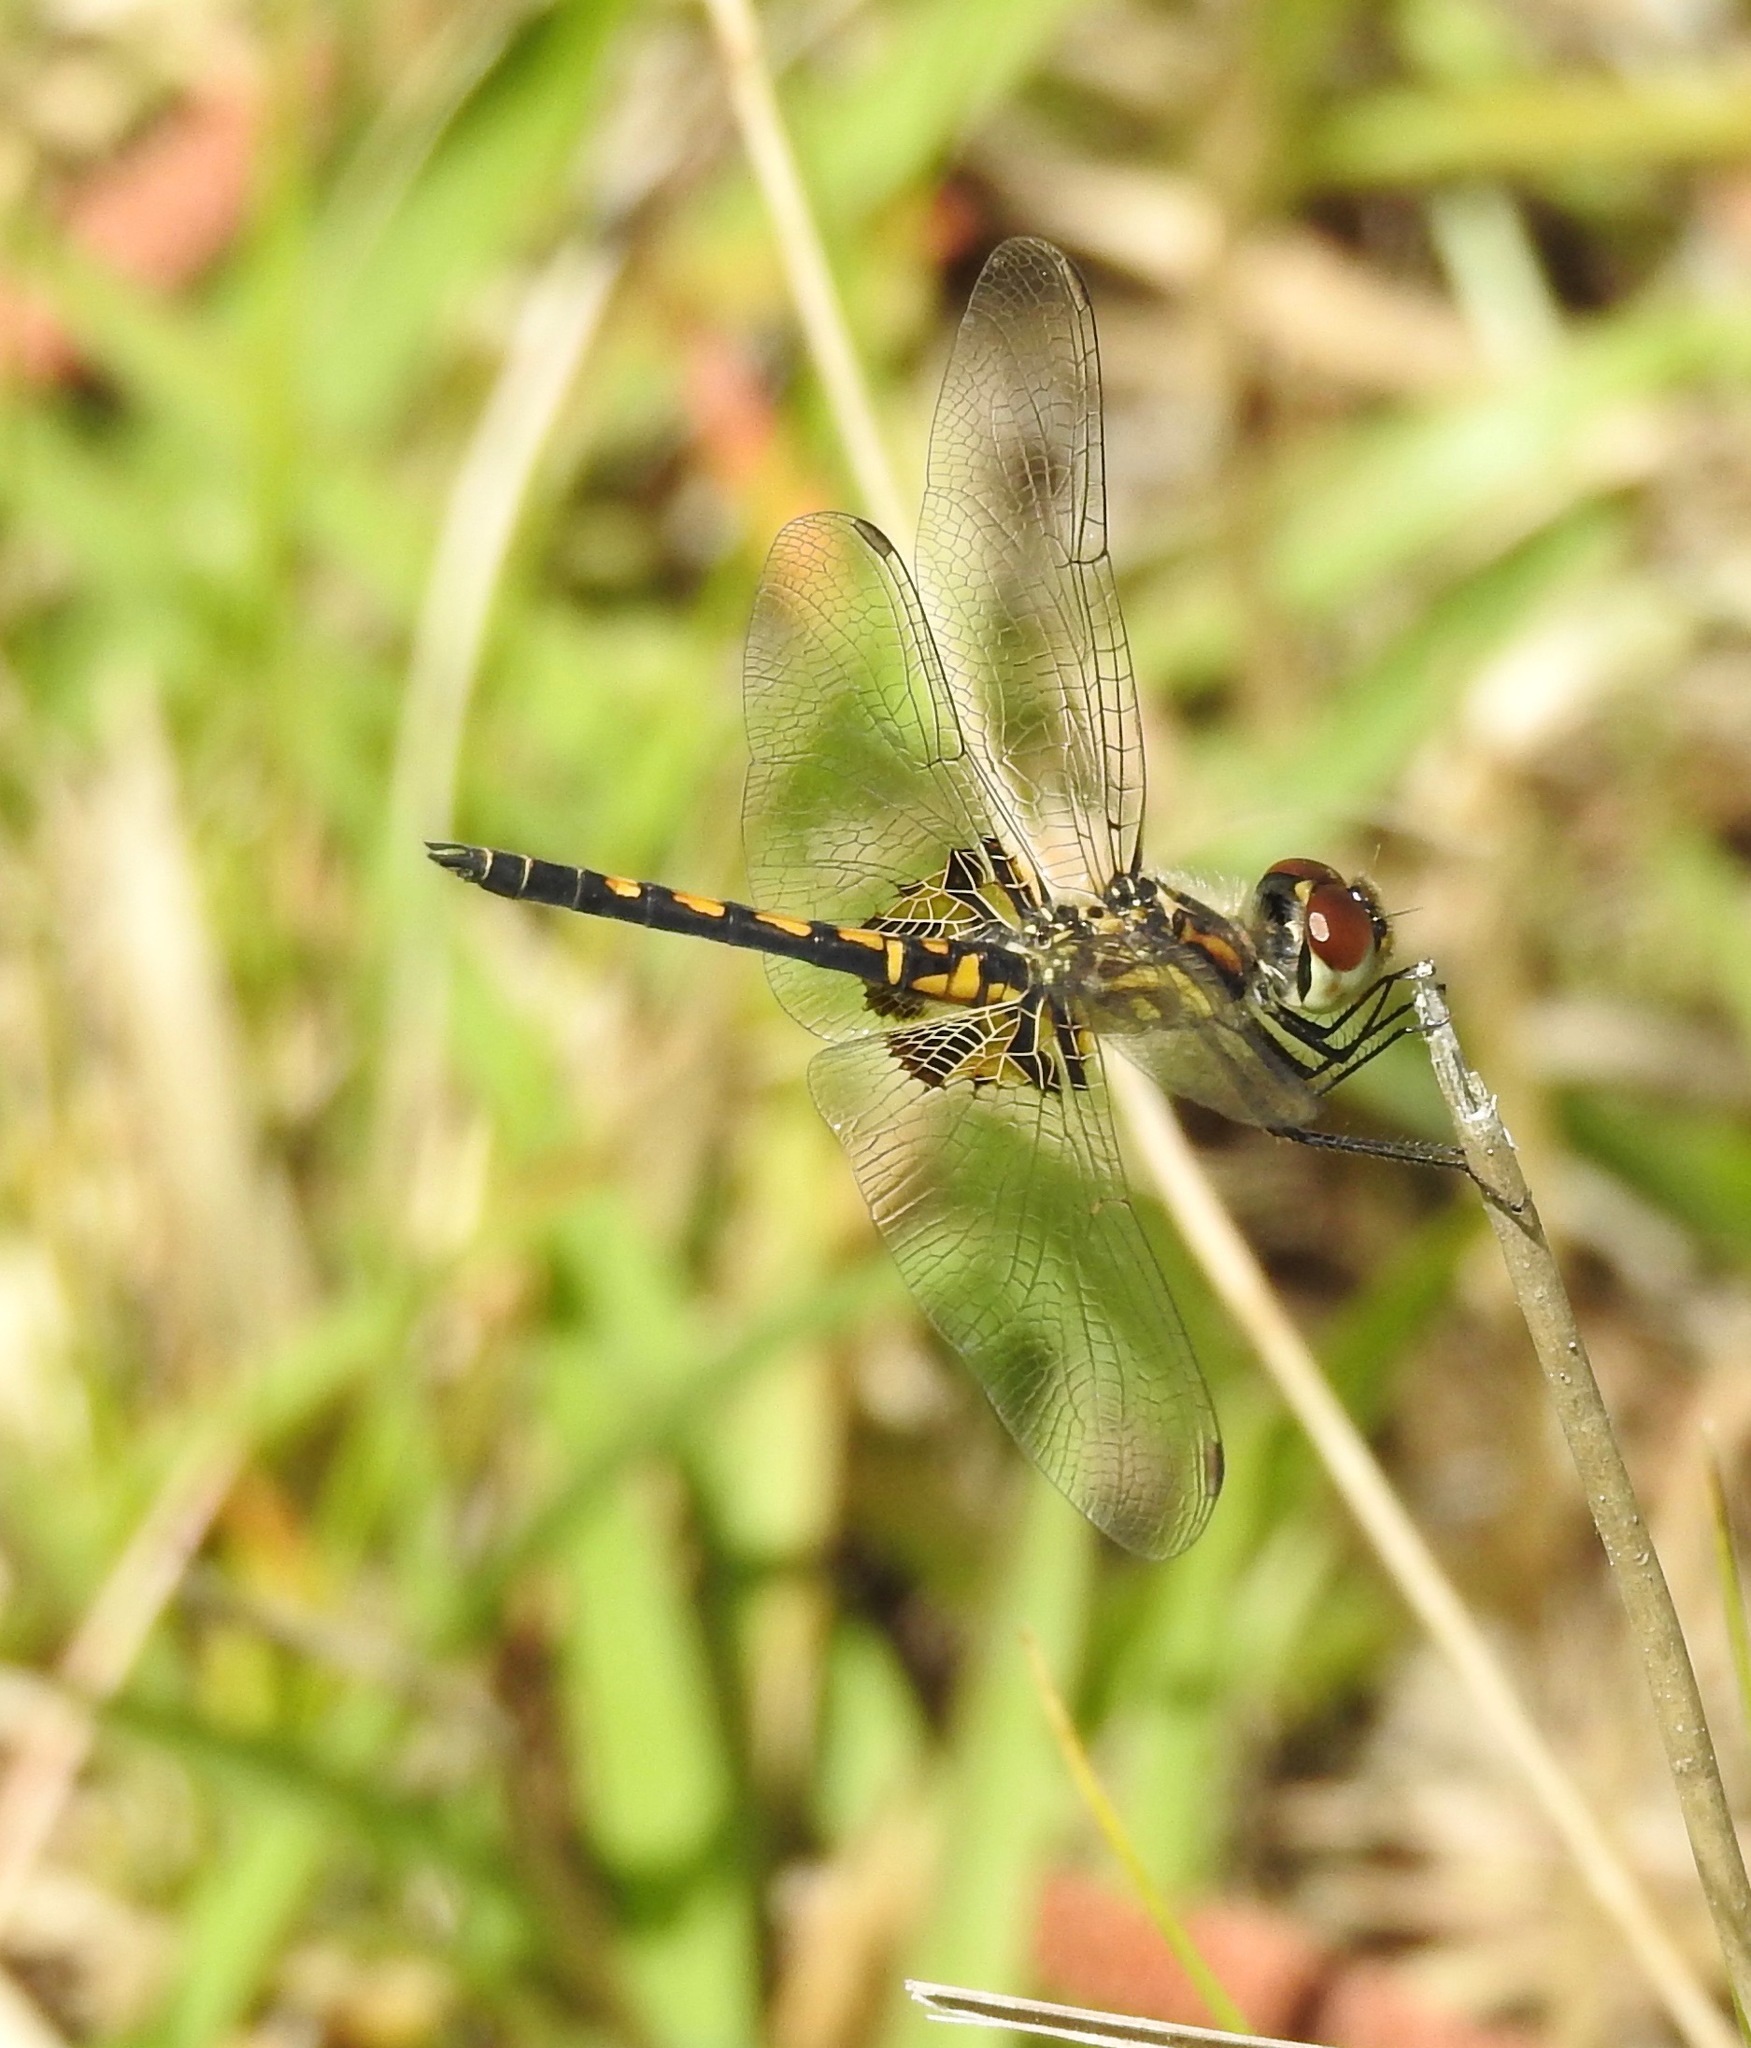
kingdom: Animalia
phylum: Arthropoda
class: Insecta
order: Odonata
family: Libellulidae
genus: Celithemis
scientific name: Celithemis ornata
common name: Ornate pennant
